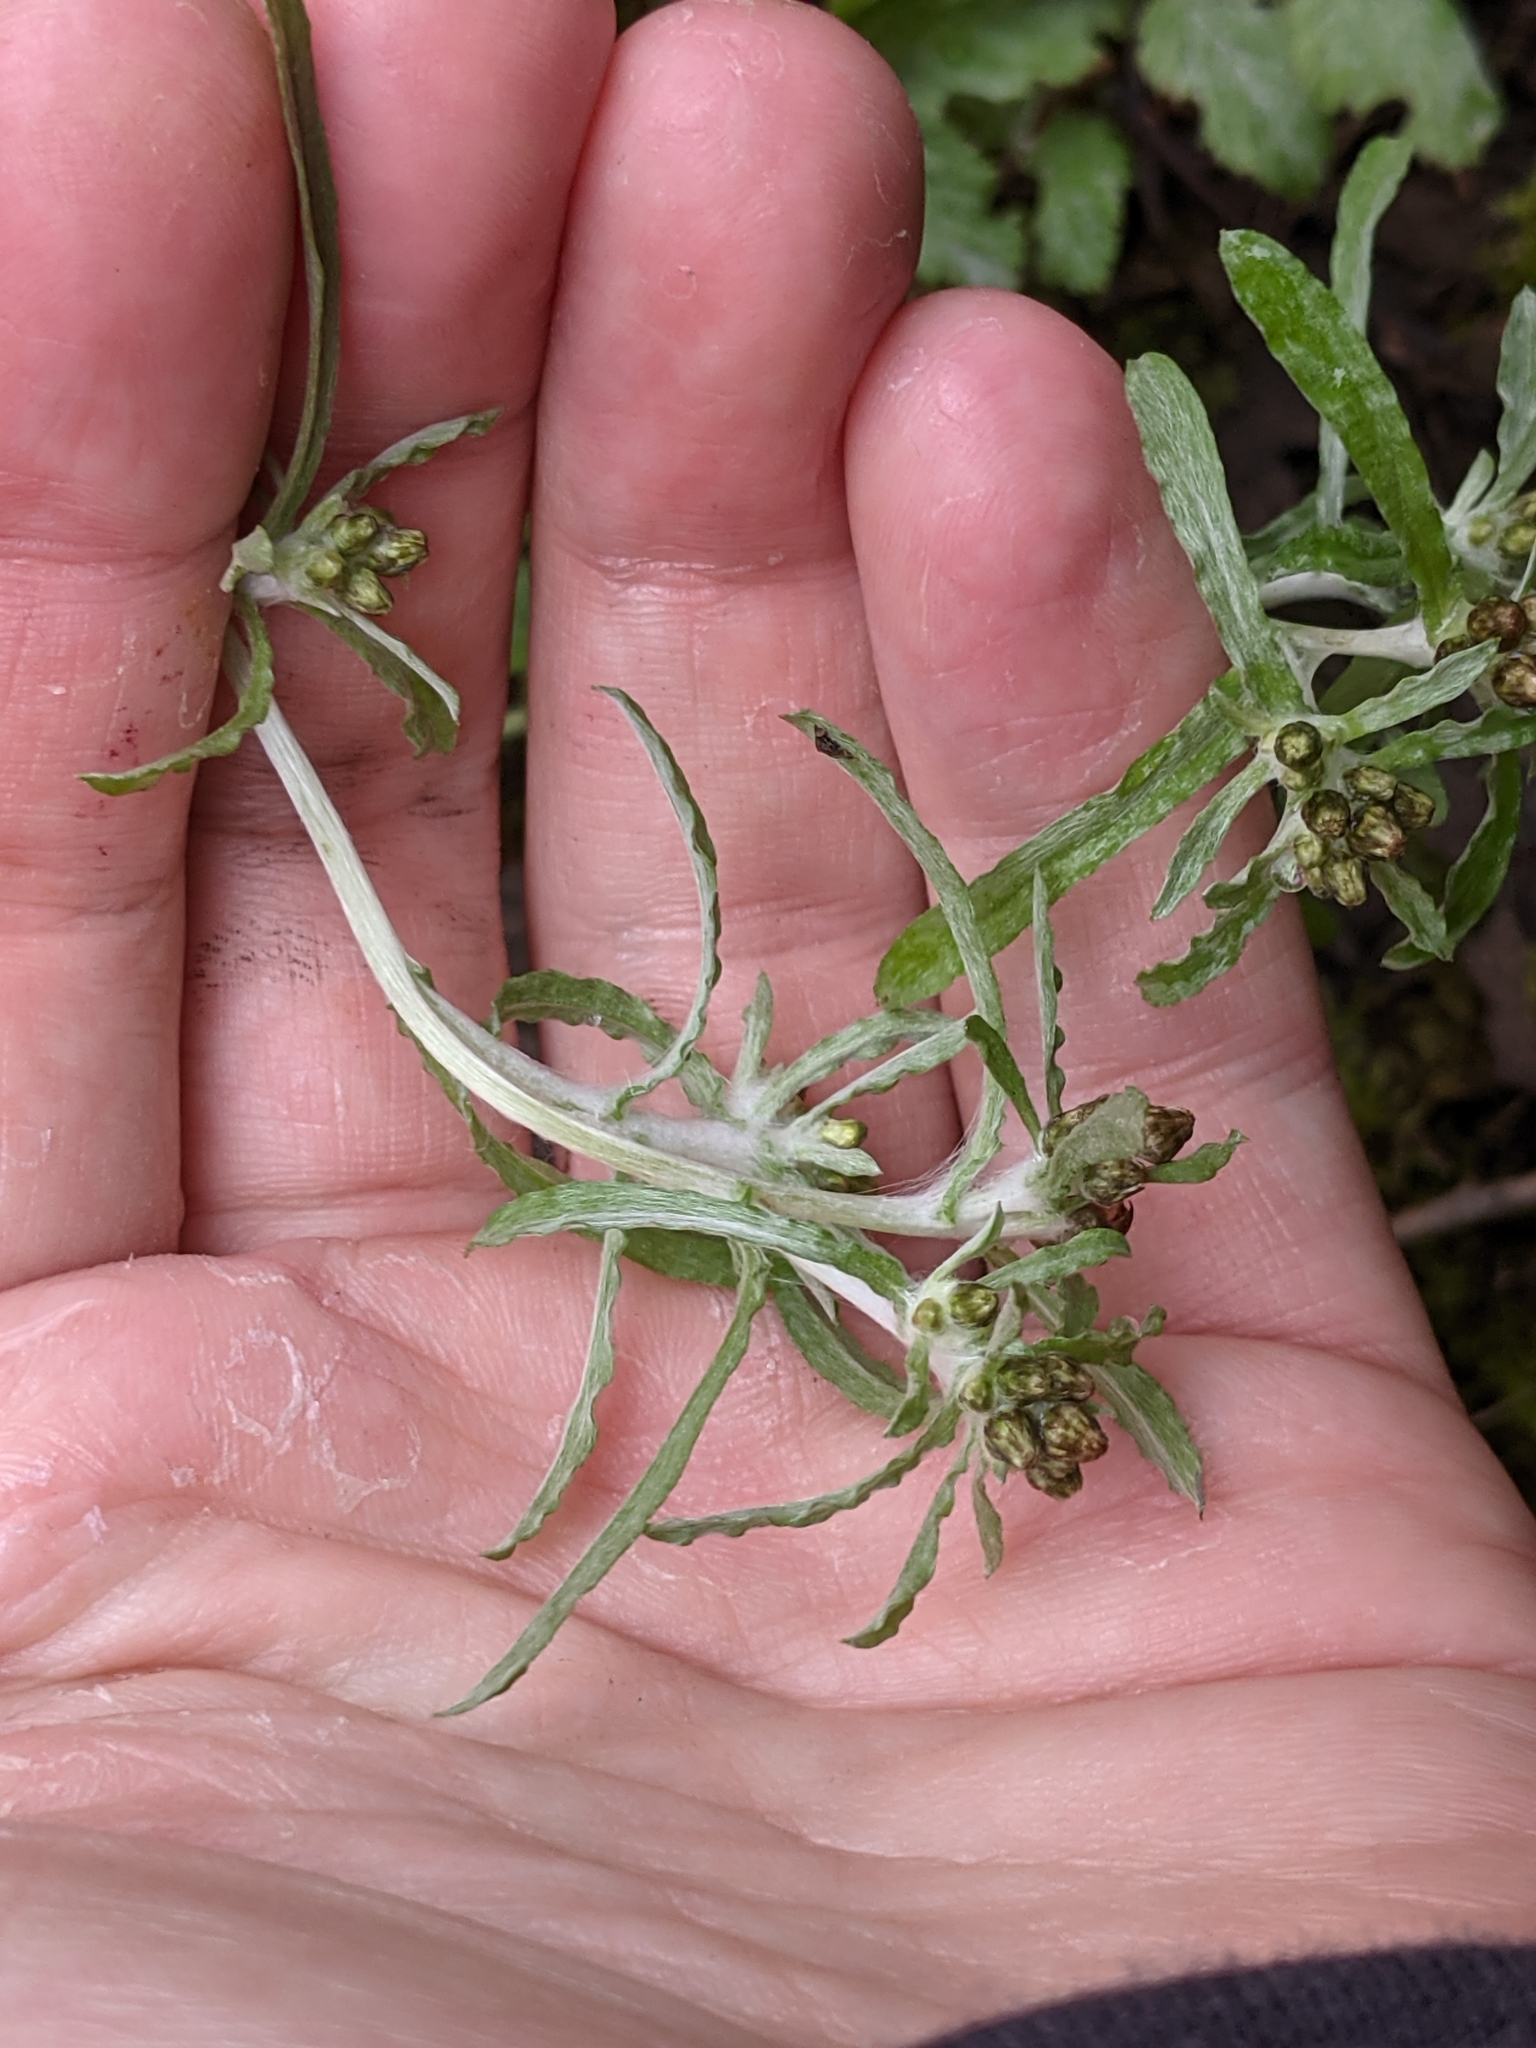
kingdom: Plantae
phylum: Tracheophyta
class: Magnoliopsida
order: Asterales
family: Asteraceae
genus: Gnaphalium
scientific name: Gnaphalium uliginosum
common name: Marsh cudweed
